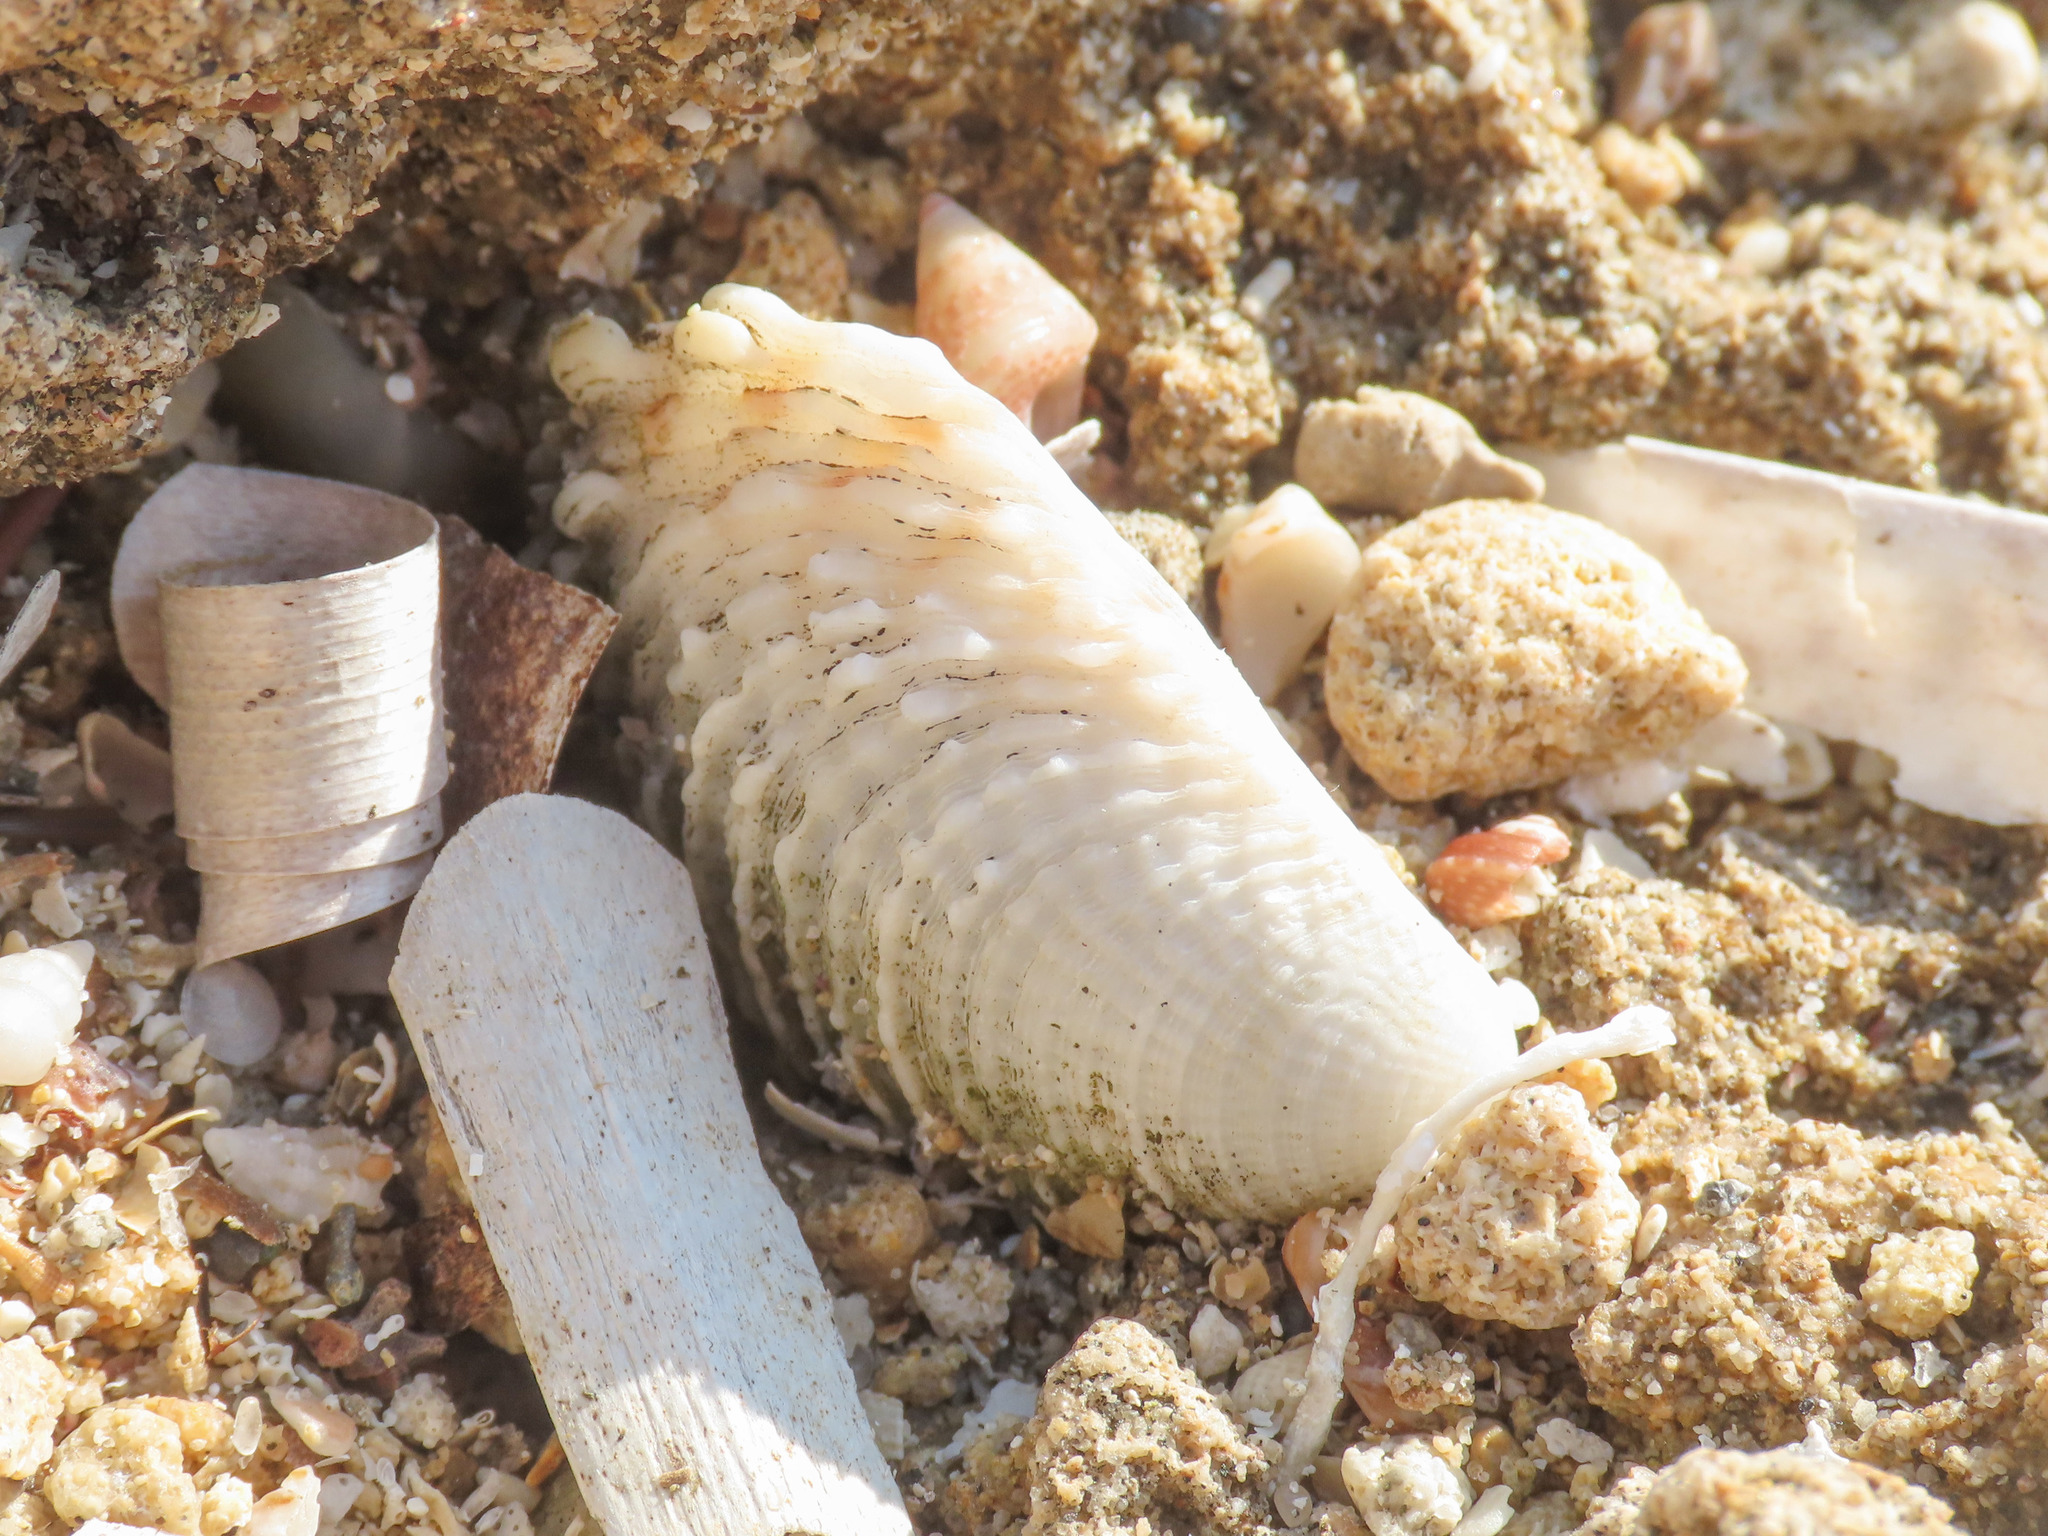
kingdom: Animalia
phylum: Mollusca
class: Bivalvia
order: Venerida
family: Veneridae
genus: Venus
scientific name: Venus verrucosa
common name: Warty venus
